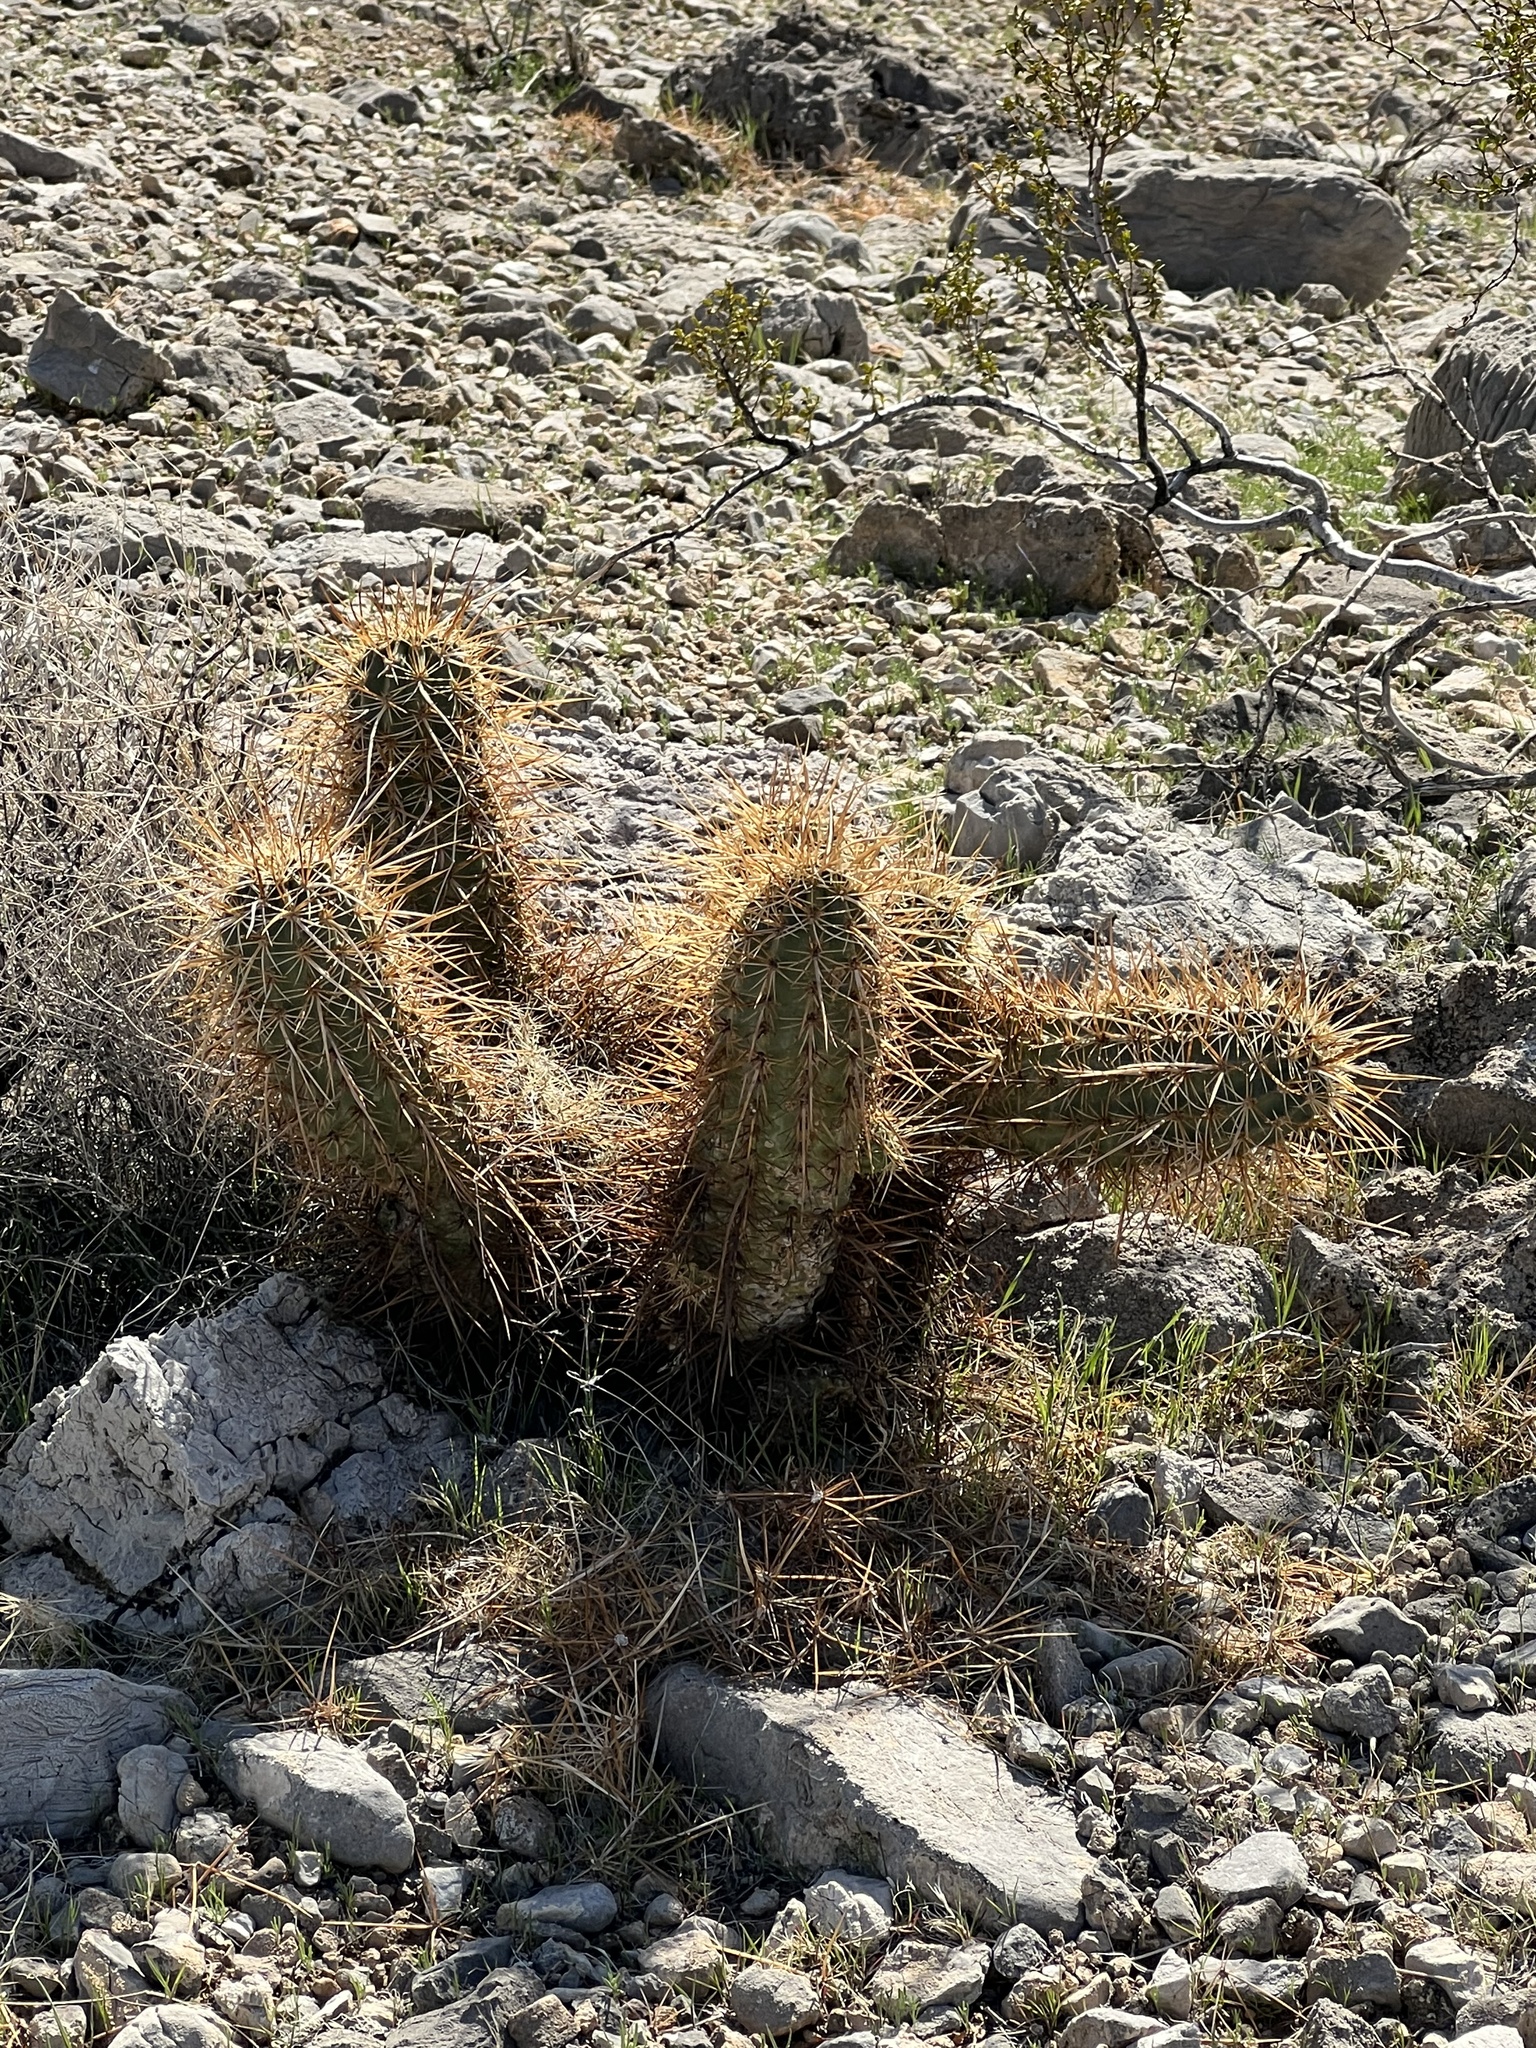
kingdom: Plantae
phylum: Tracheophyta
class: Magnoliopsida
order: Caryophyllales
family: Cactaceae
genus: Echinocereus
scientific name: Echinocereus engelmannii
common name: Engelmann's hedgehog cactus
